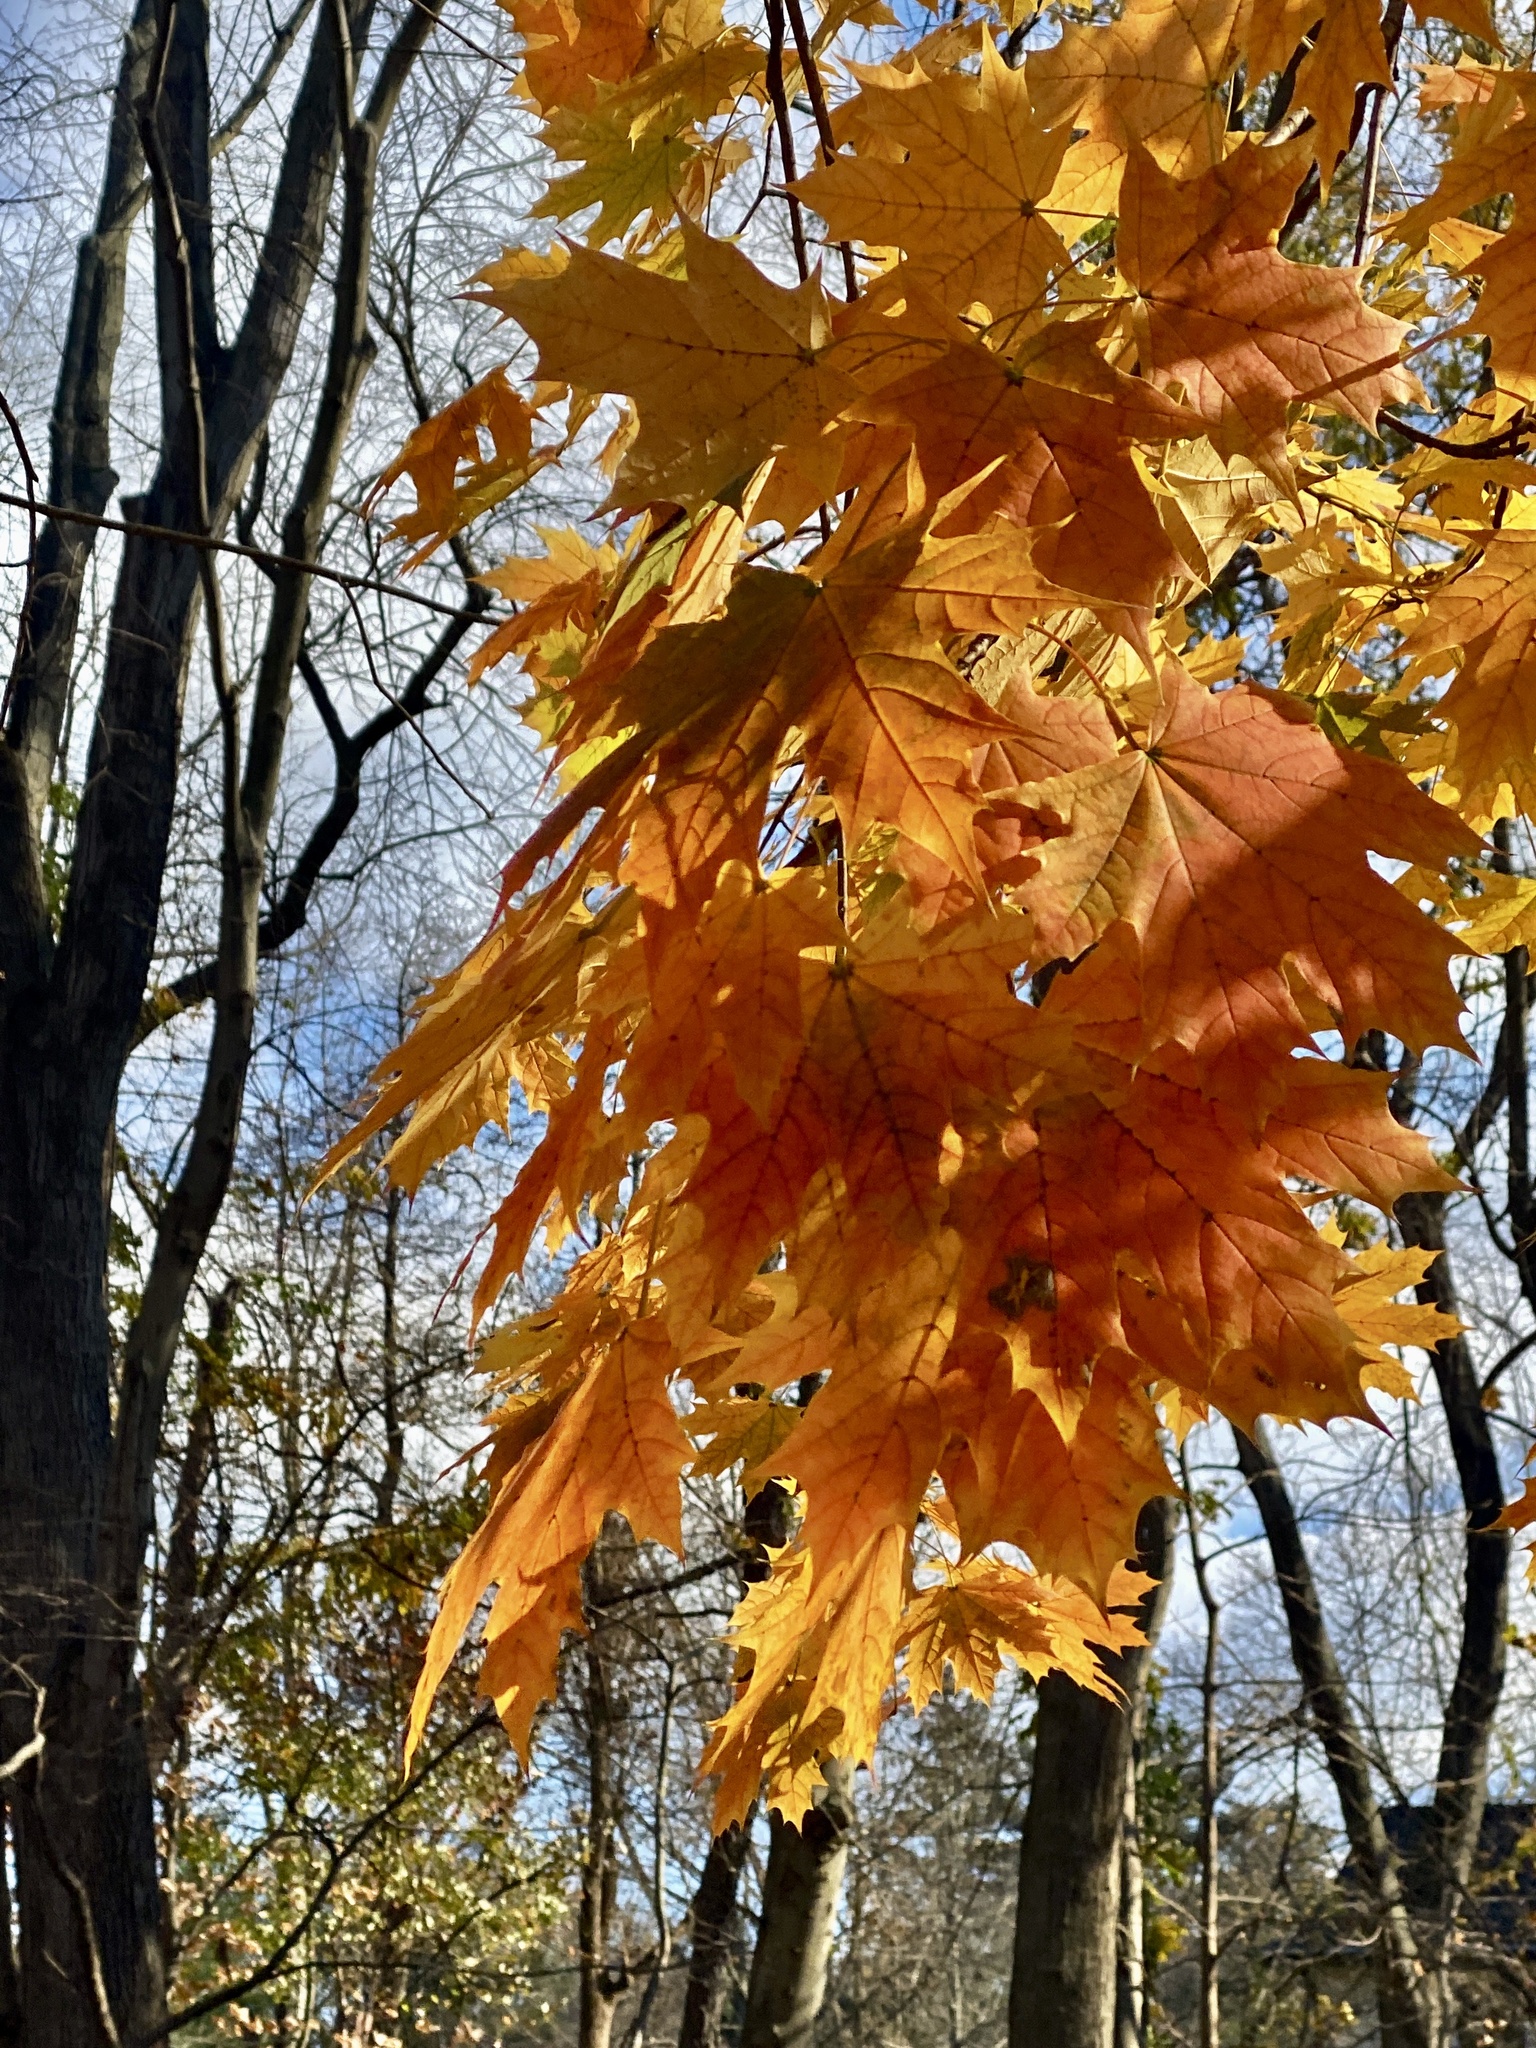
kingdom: Plantae
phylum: Tracheophyta
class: Magnoliopsida
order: Sapindales
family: Sapindaceae
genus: Acer
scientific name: Acer platanoides
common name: Norway maple
